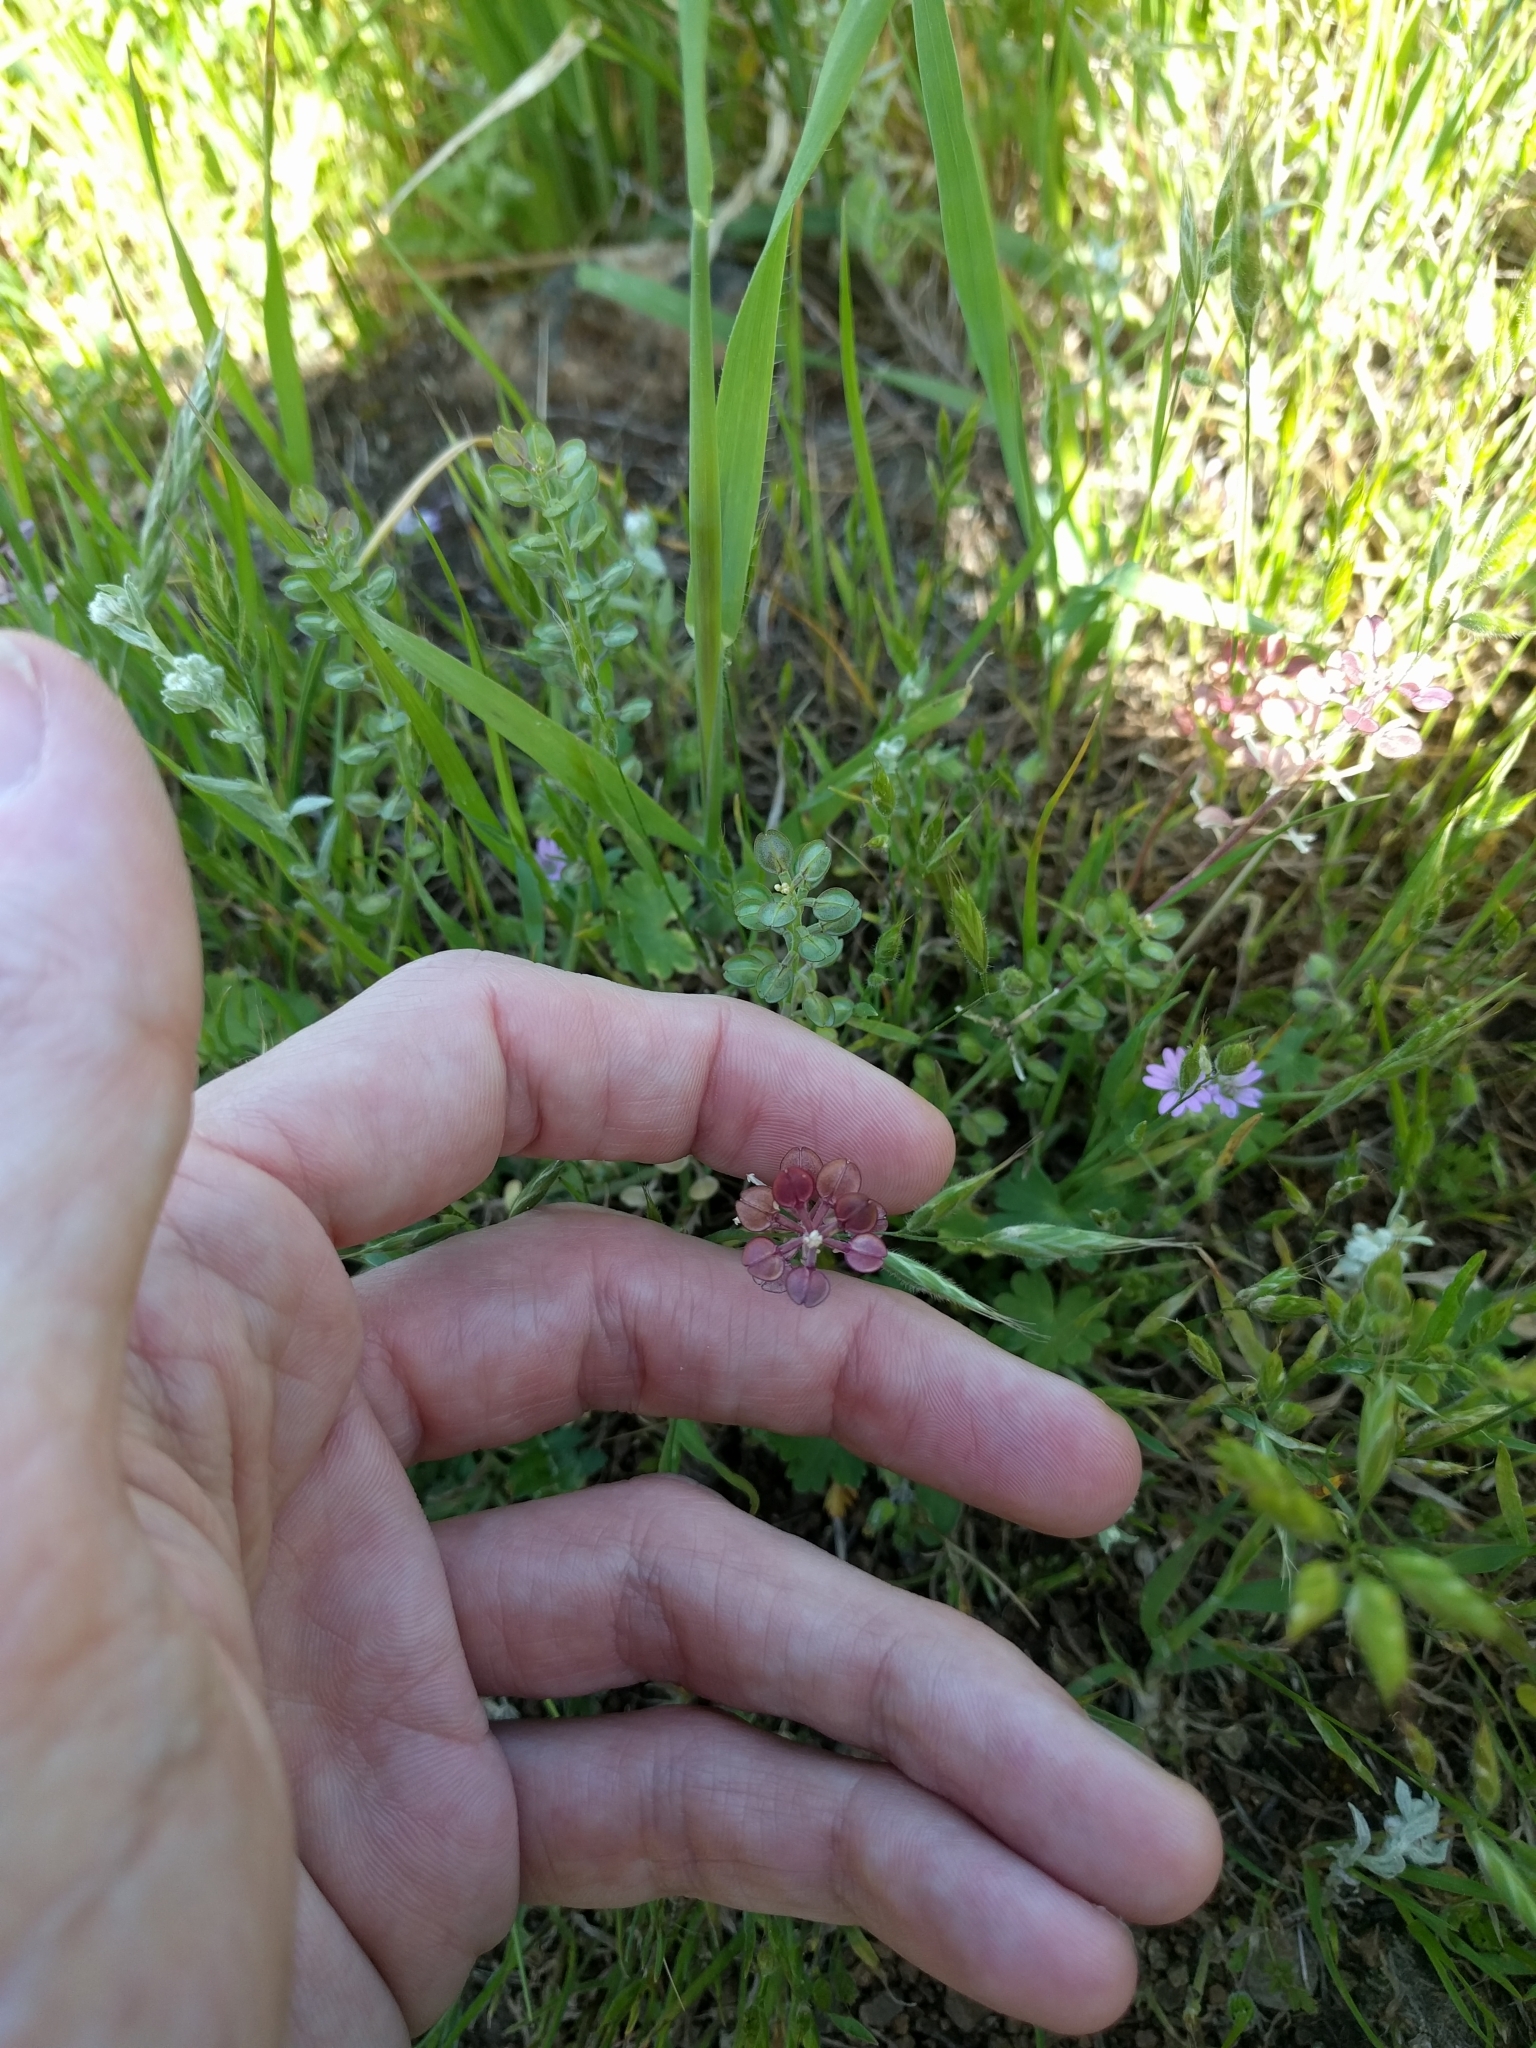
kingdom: Plantae
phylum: Tracheophyta
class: Magnoliopsida
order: Brassicales
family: Brassicaceae
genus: Lepidium
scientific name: Lepidium nitidum
